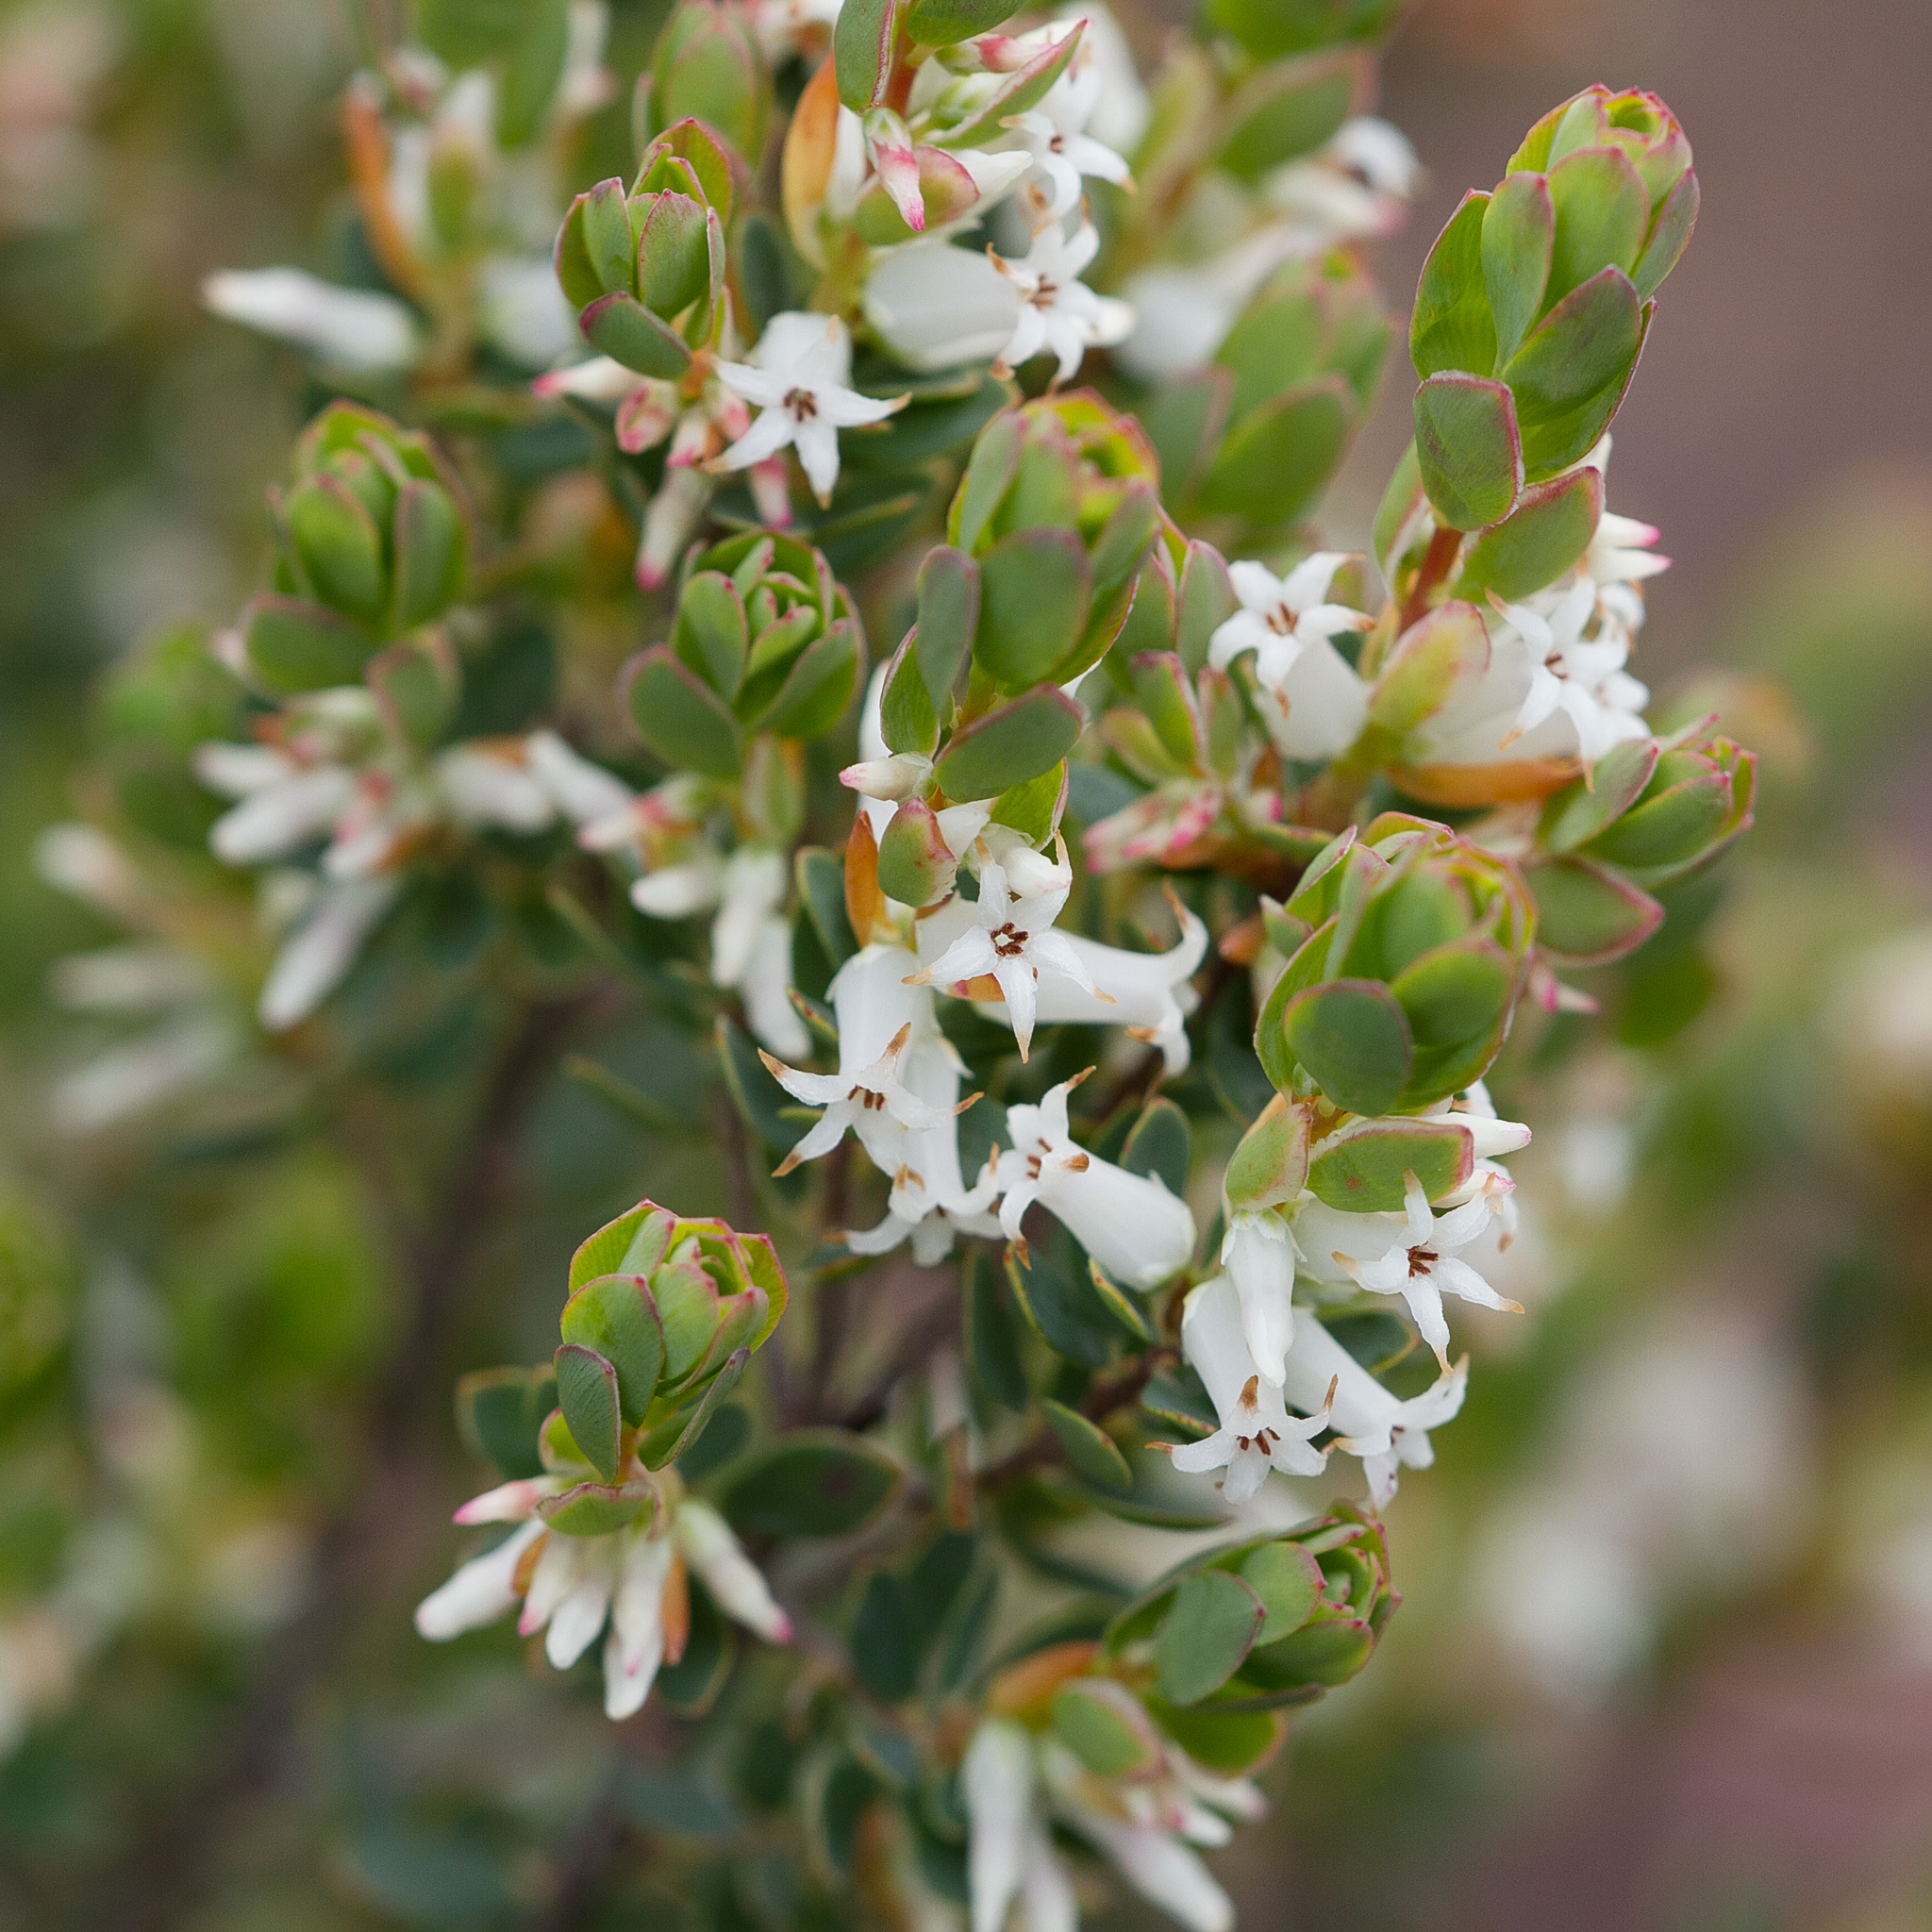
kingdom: Plantae
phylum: Tracheophyta
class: Magnoliopsida
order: Ericales
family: Ericaceae
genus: Brachyloma
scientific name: Brachyloma daphnoides
